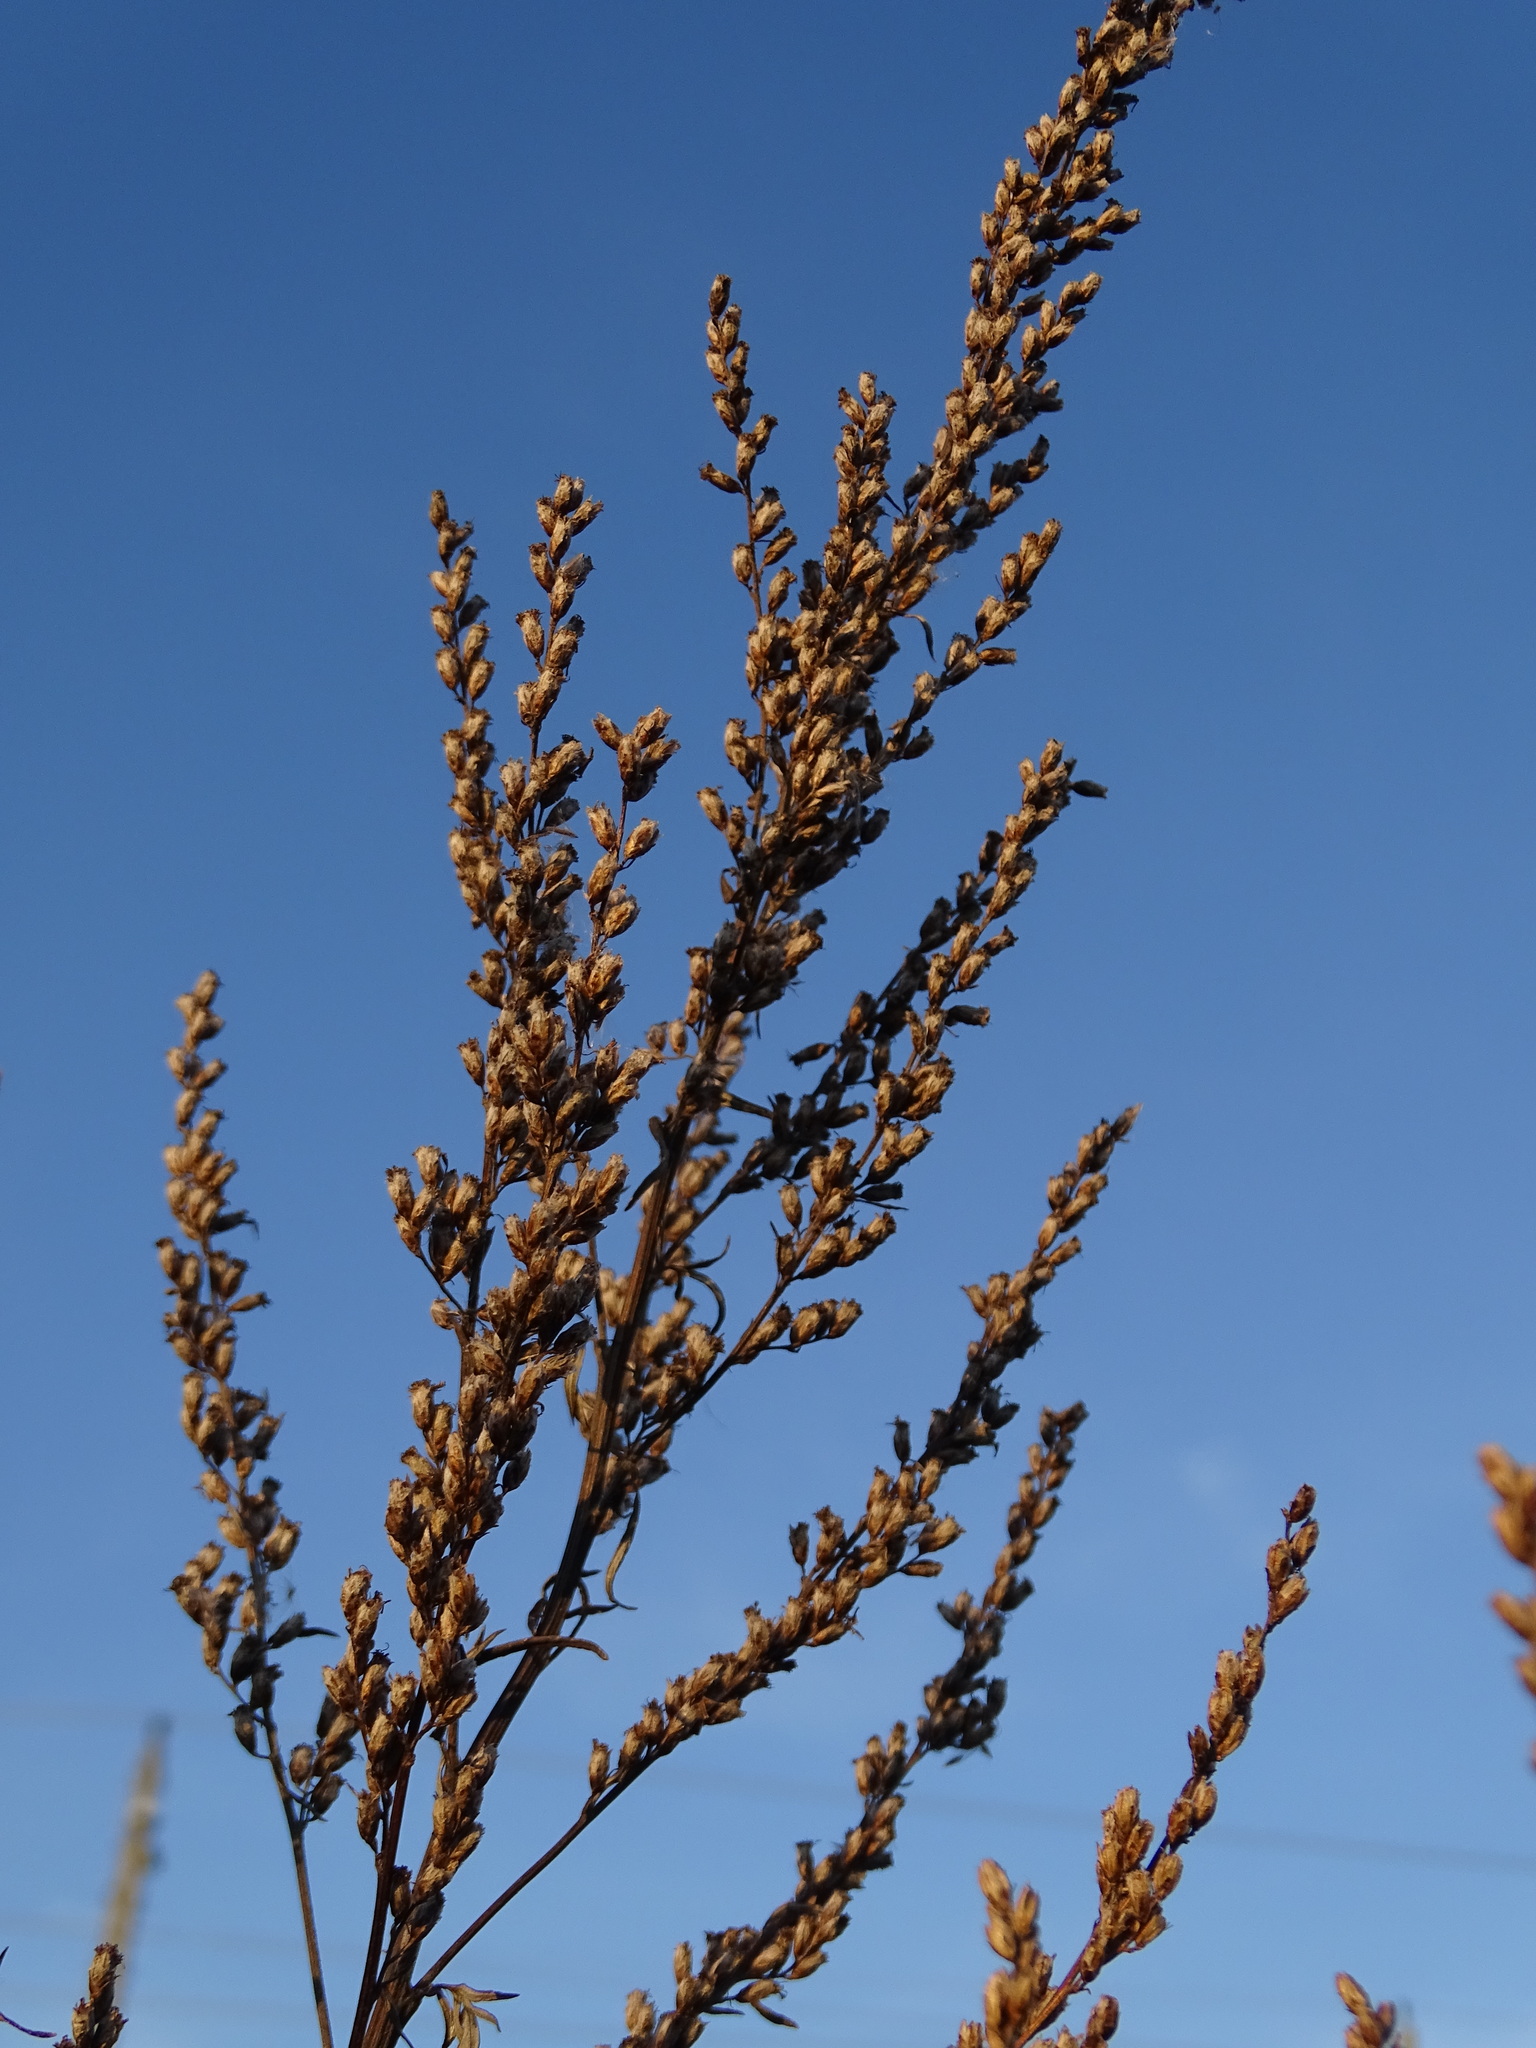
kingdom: Plantae
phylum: Tracheophyta
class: Magnoliopsida
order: Asterales
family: Asteraceae
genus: Artemisia
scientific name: Artemisia vulgaris
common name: Mugwort
